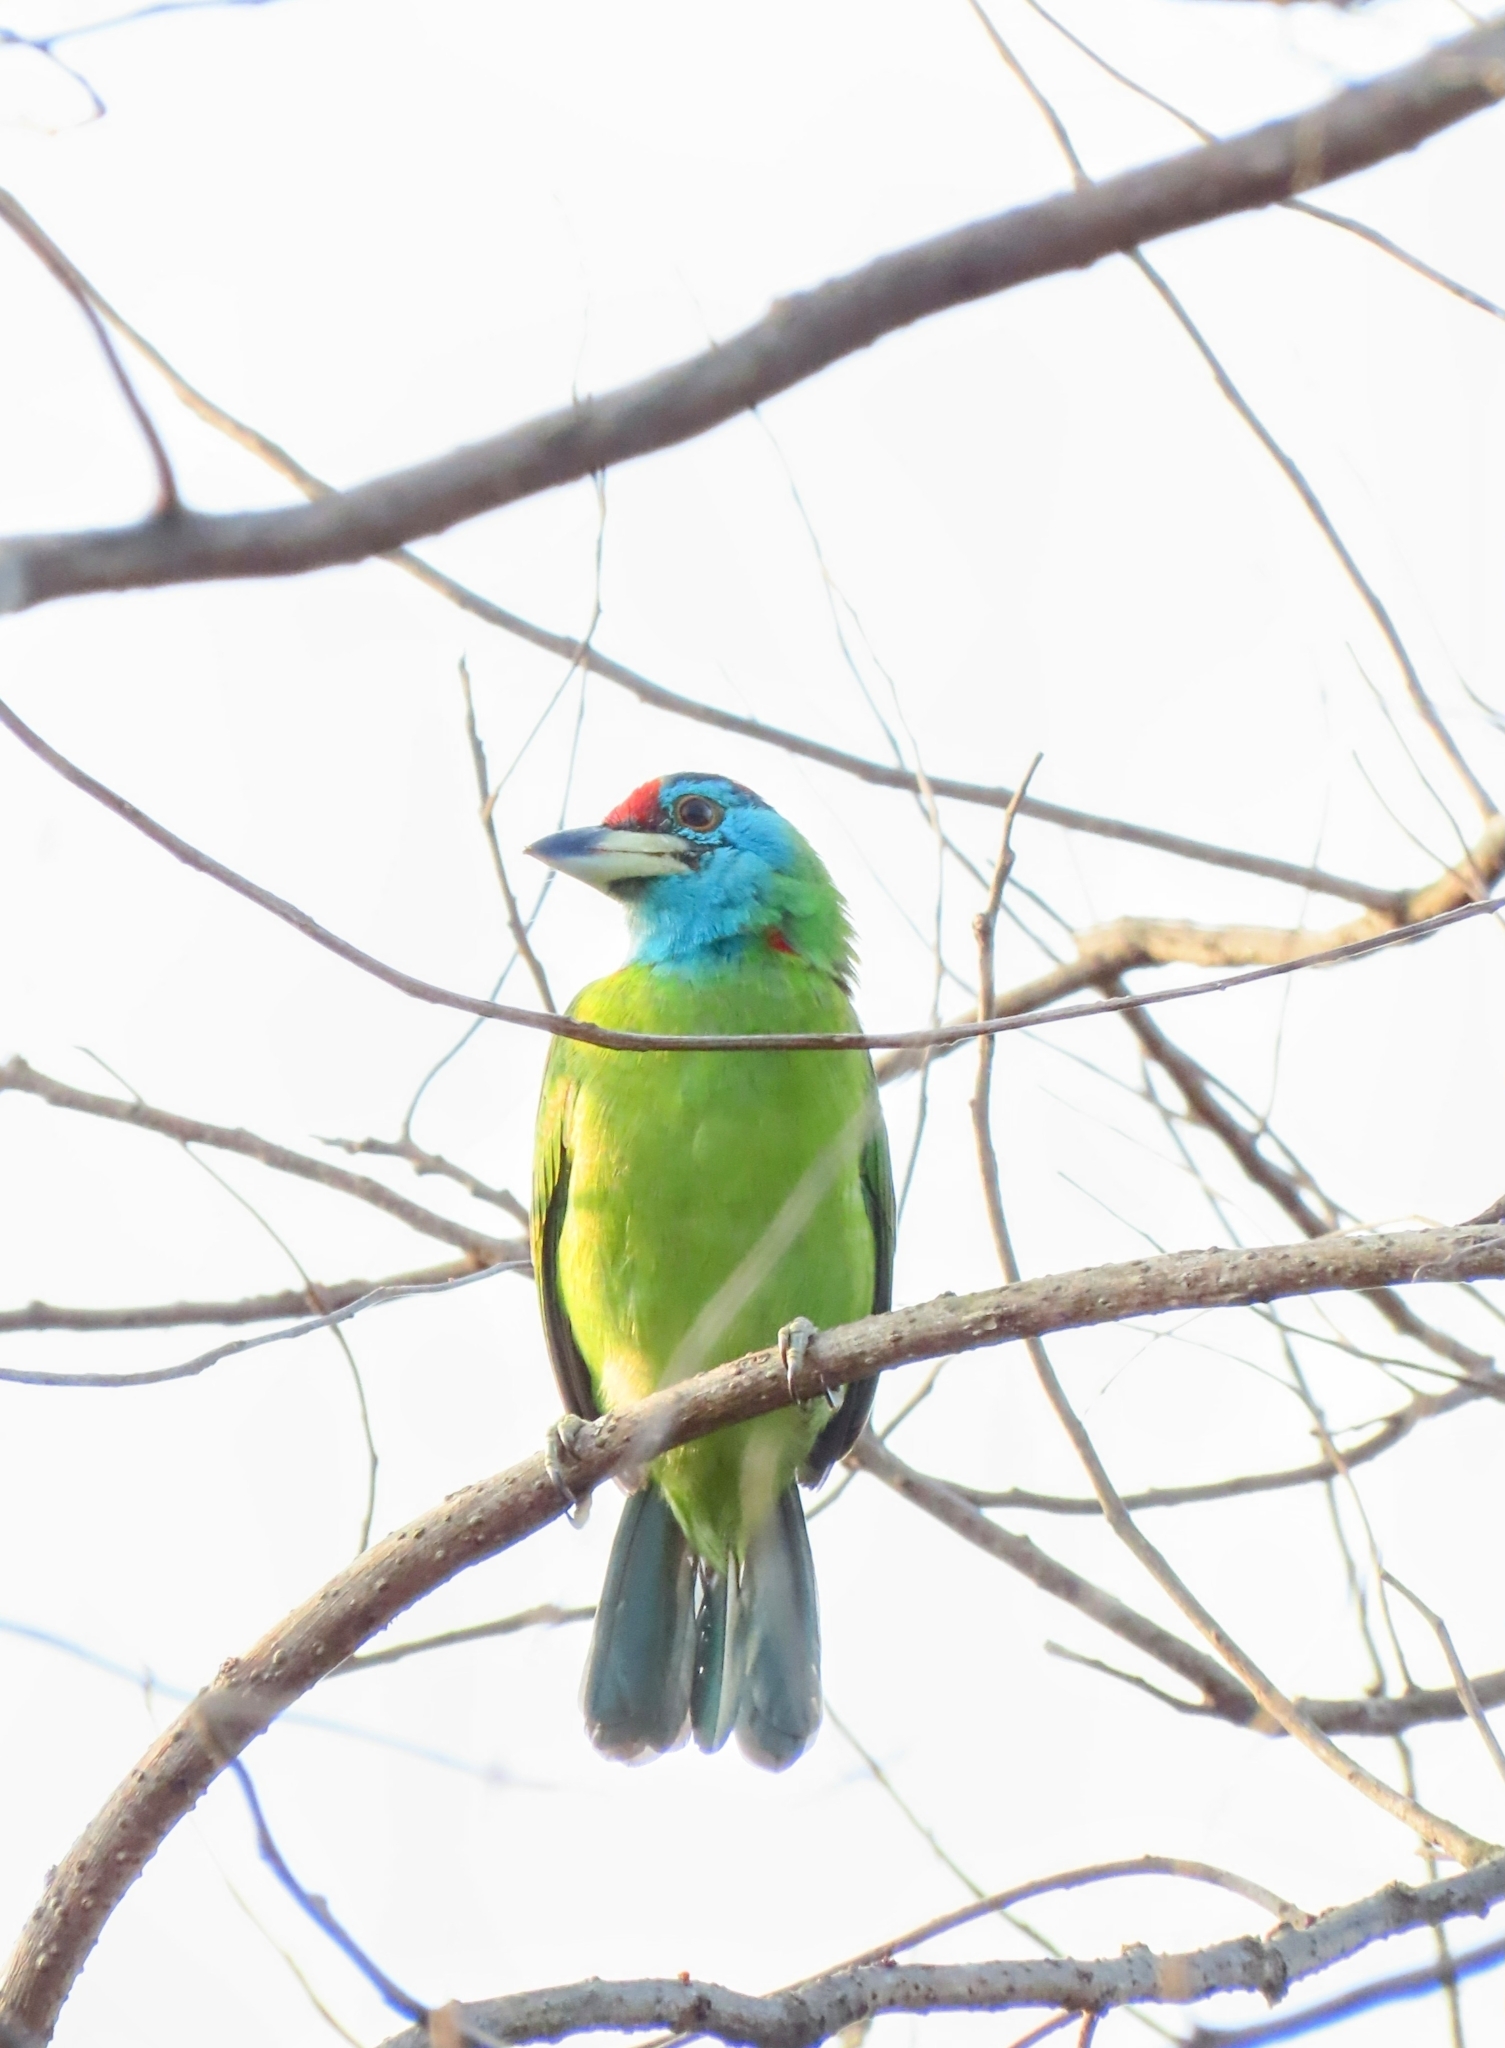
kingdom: Animalia
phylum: Chordata
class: Aves
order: Piciformes
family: Megalaimidae
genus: Psilopogon
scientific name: Psilopogon asiaticus
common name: Blue-throated barbet
